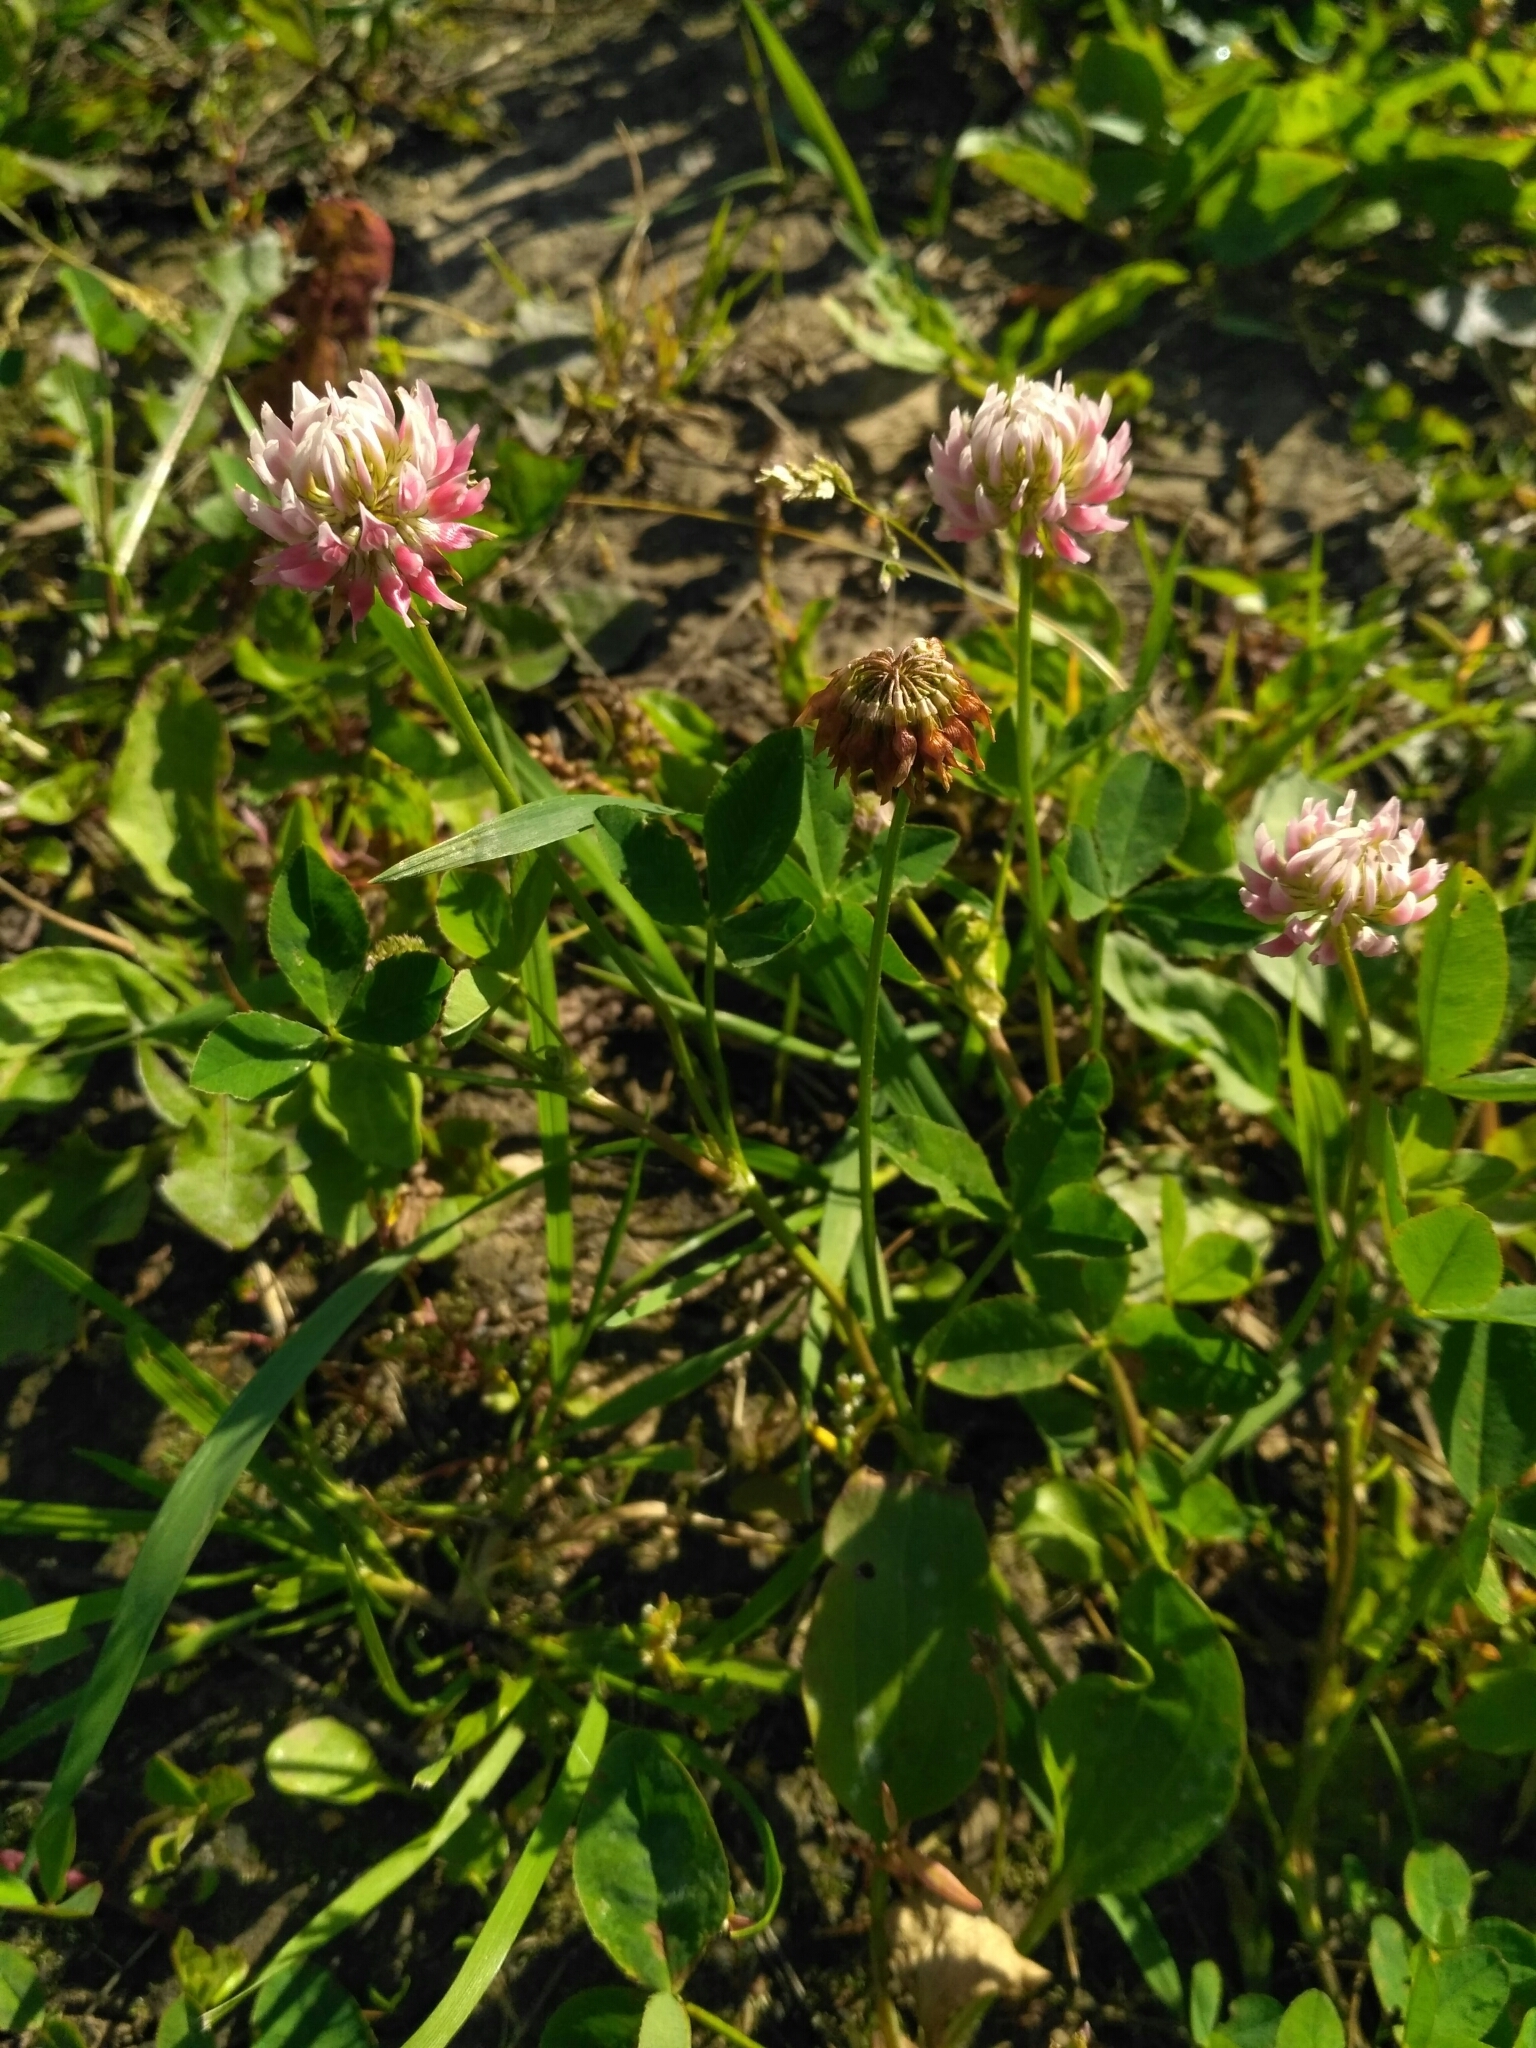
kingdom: Plantae
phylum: Tracheophyta
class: Magnoliopsida
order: Fabales
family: Fabaceae
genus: Trifolium
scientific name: Trifolium hybridum
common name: Alsike clover
